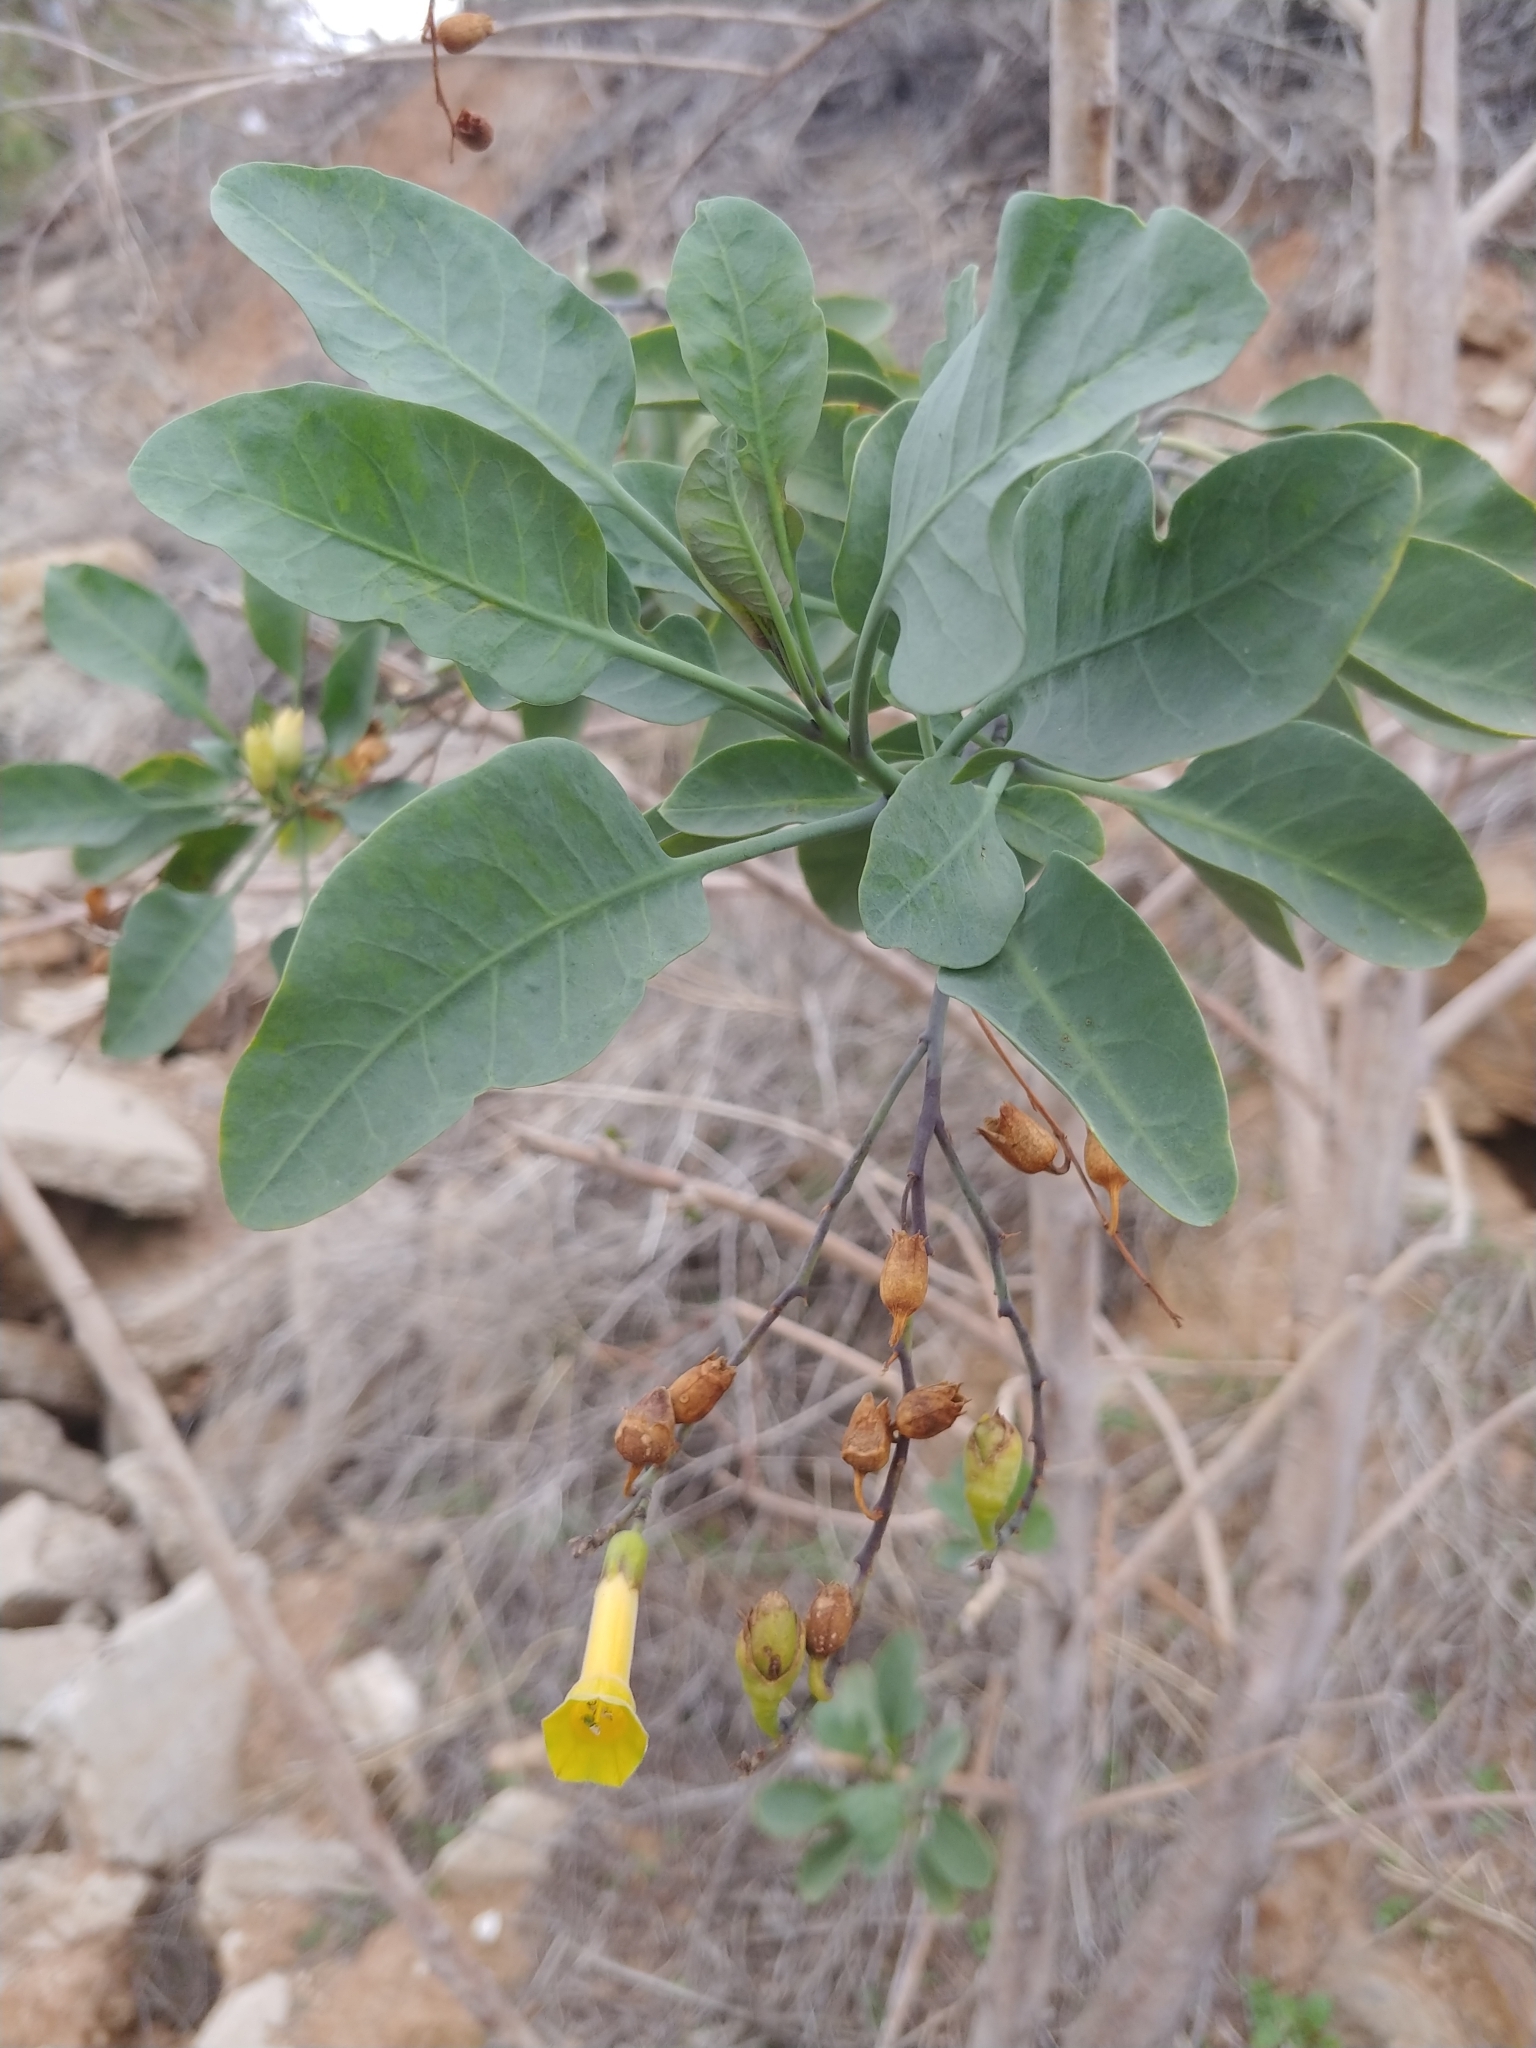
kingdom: Plantae
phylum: Tracheophyta
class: Magnoliopsida
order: Solanales
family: Solanaceae
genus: Nicotiana
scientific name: Nicotiana glauca
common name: Tree tobacco
